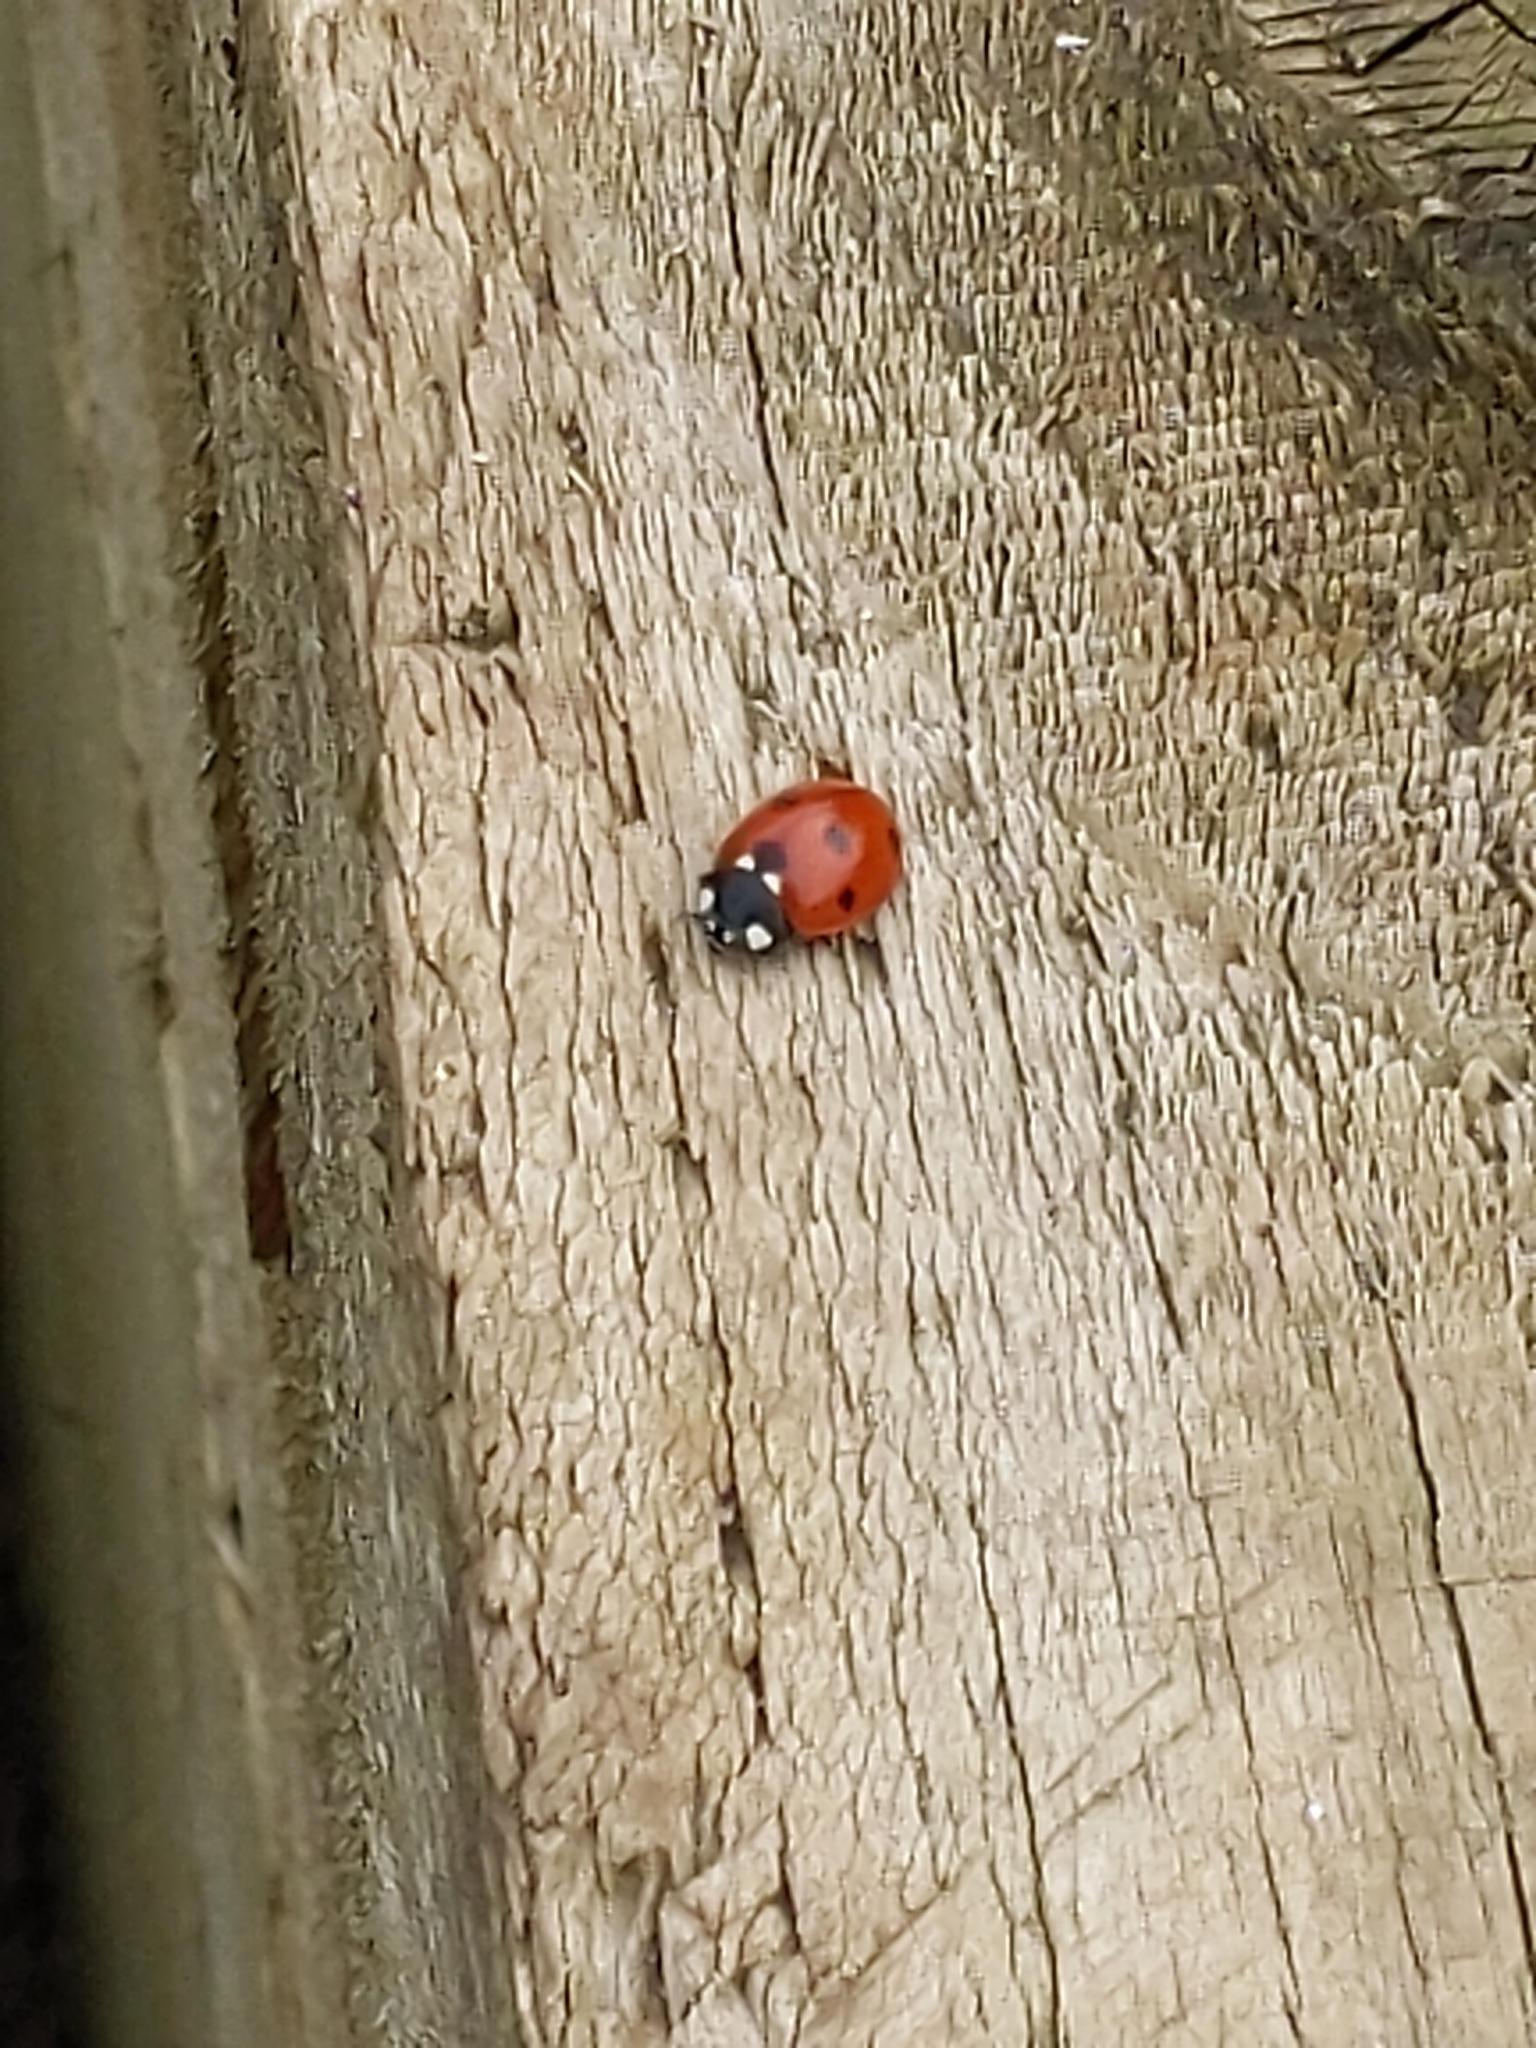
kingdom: Animalia
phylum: Arthropoda
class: Insecta
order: Coleoptera
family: Coccinellidae
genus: Coccinella
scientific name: Coccinella septempunctata
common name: Sevenspotted lady beetle
